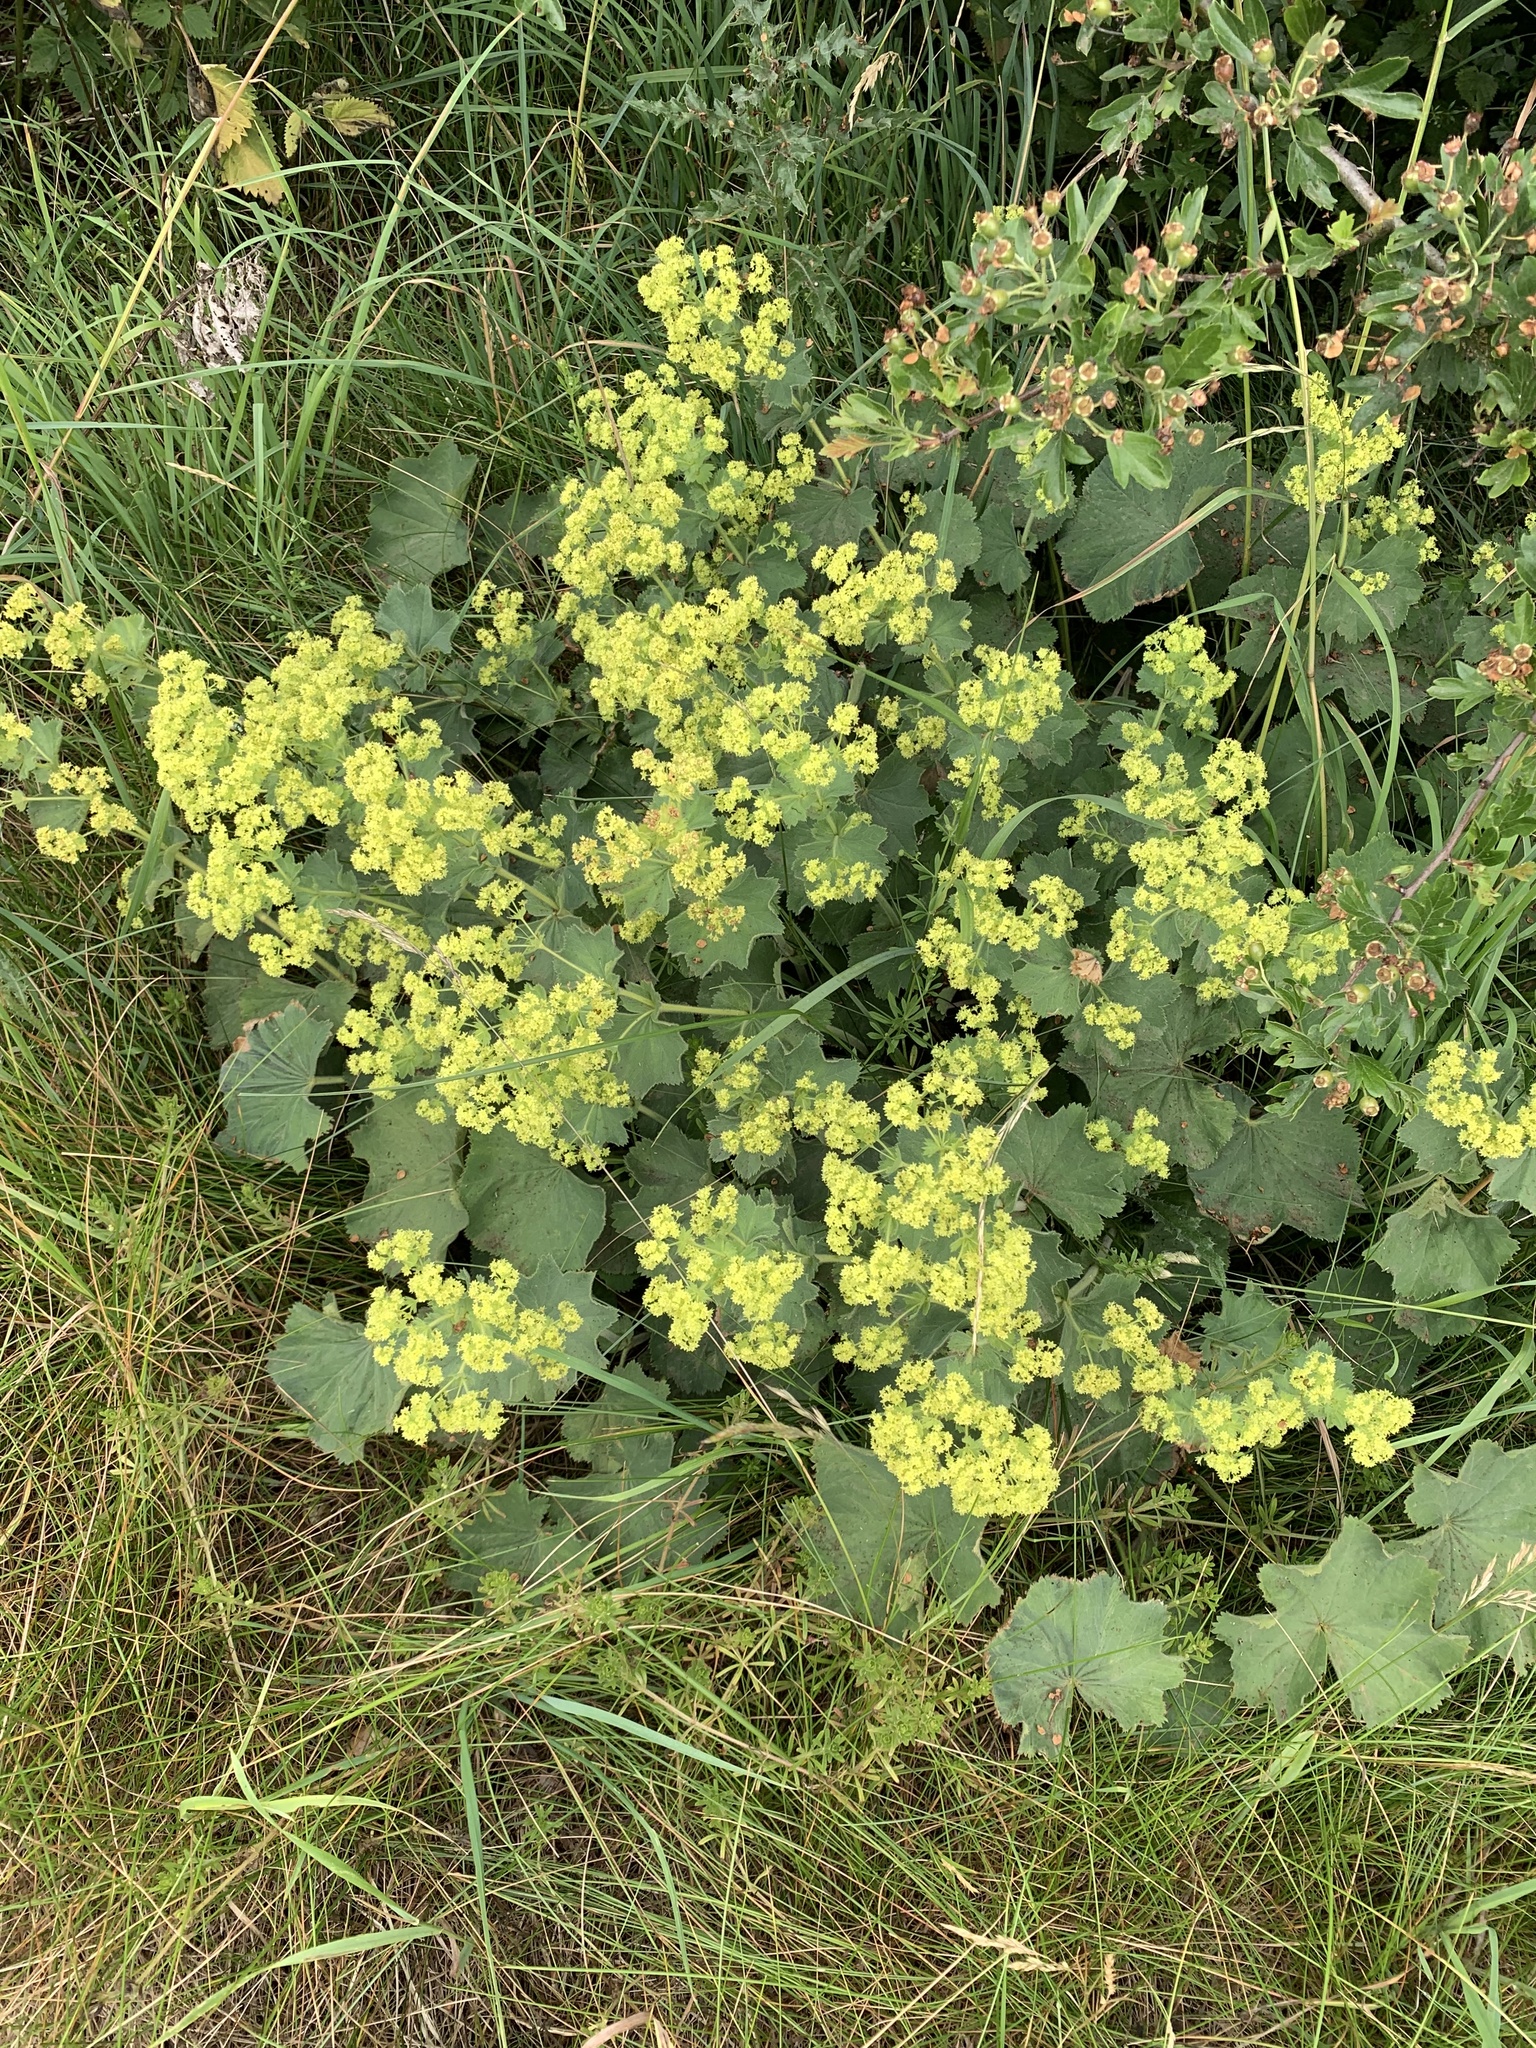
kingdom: Plantae
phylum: Tracheophyta
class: Magnoliopsida
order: Rosales
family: Rosaceae
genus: Alchemilla
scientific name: Alchemilla mollis
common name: Lady's-mantle
